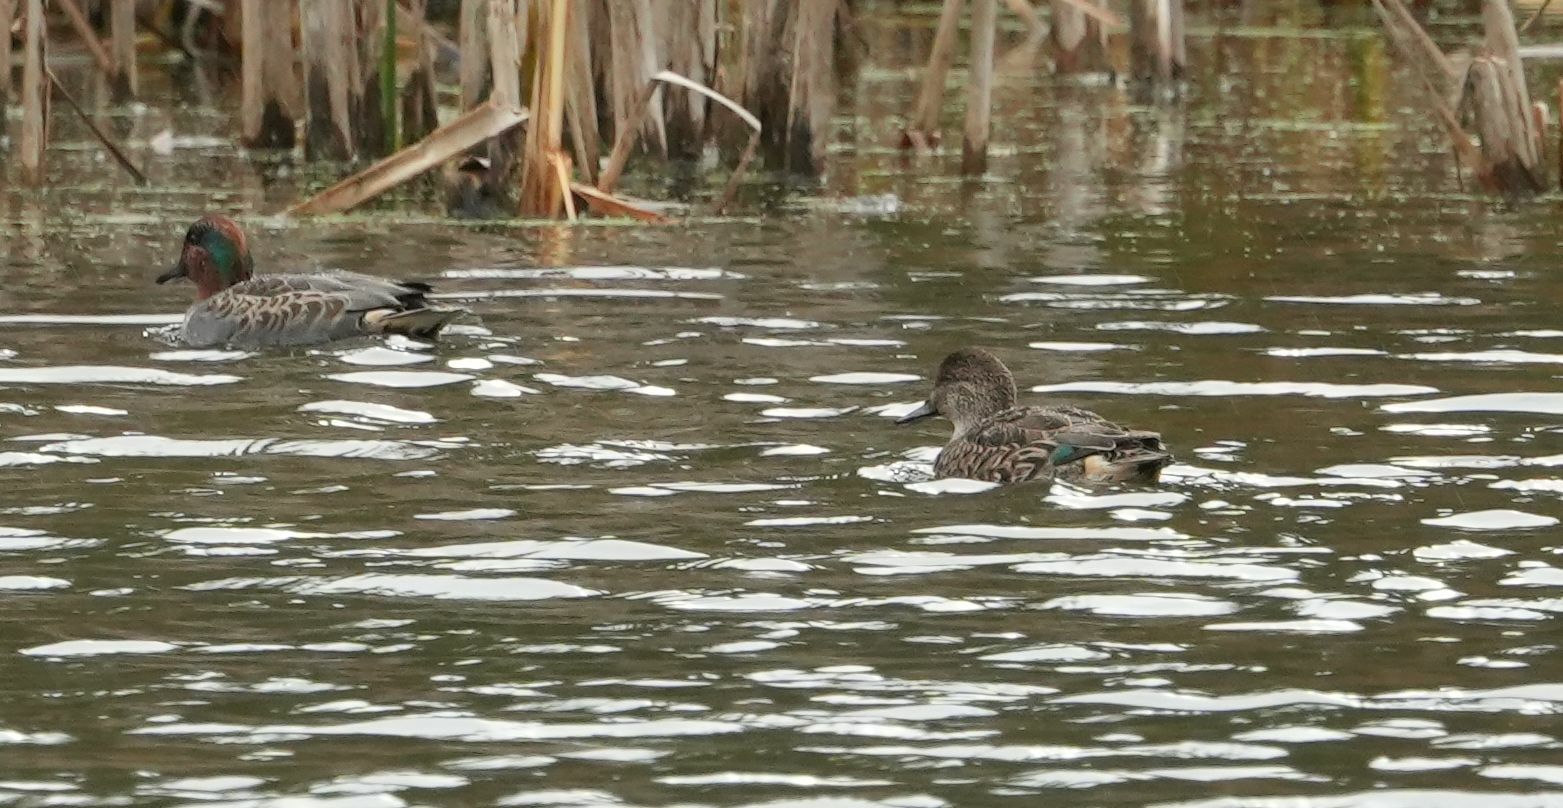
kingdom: Animalia
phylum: Chordata
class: Aves
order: Anseriformes
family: Anatidae
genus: Anas
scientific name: Anas crecca
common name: Eurasian teal
